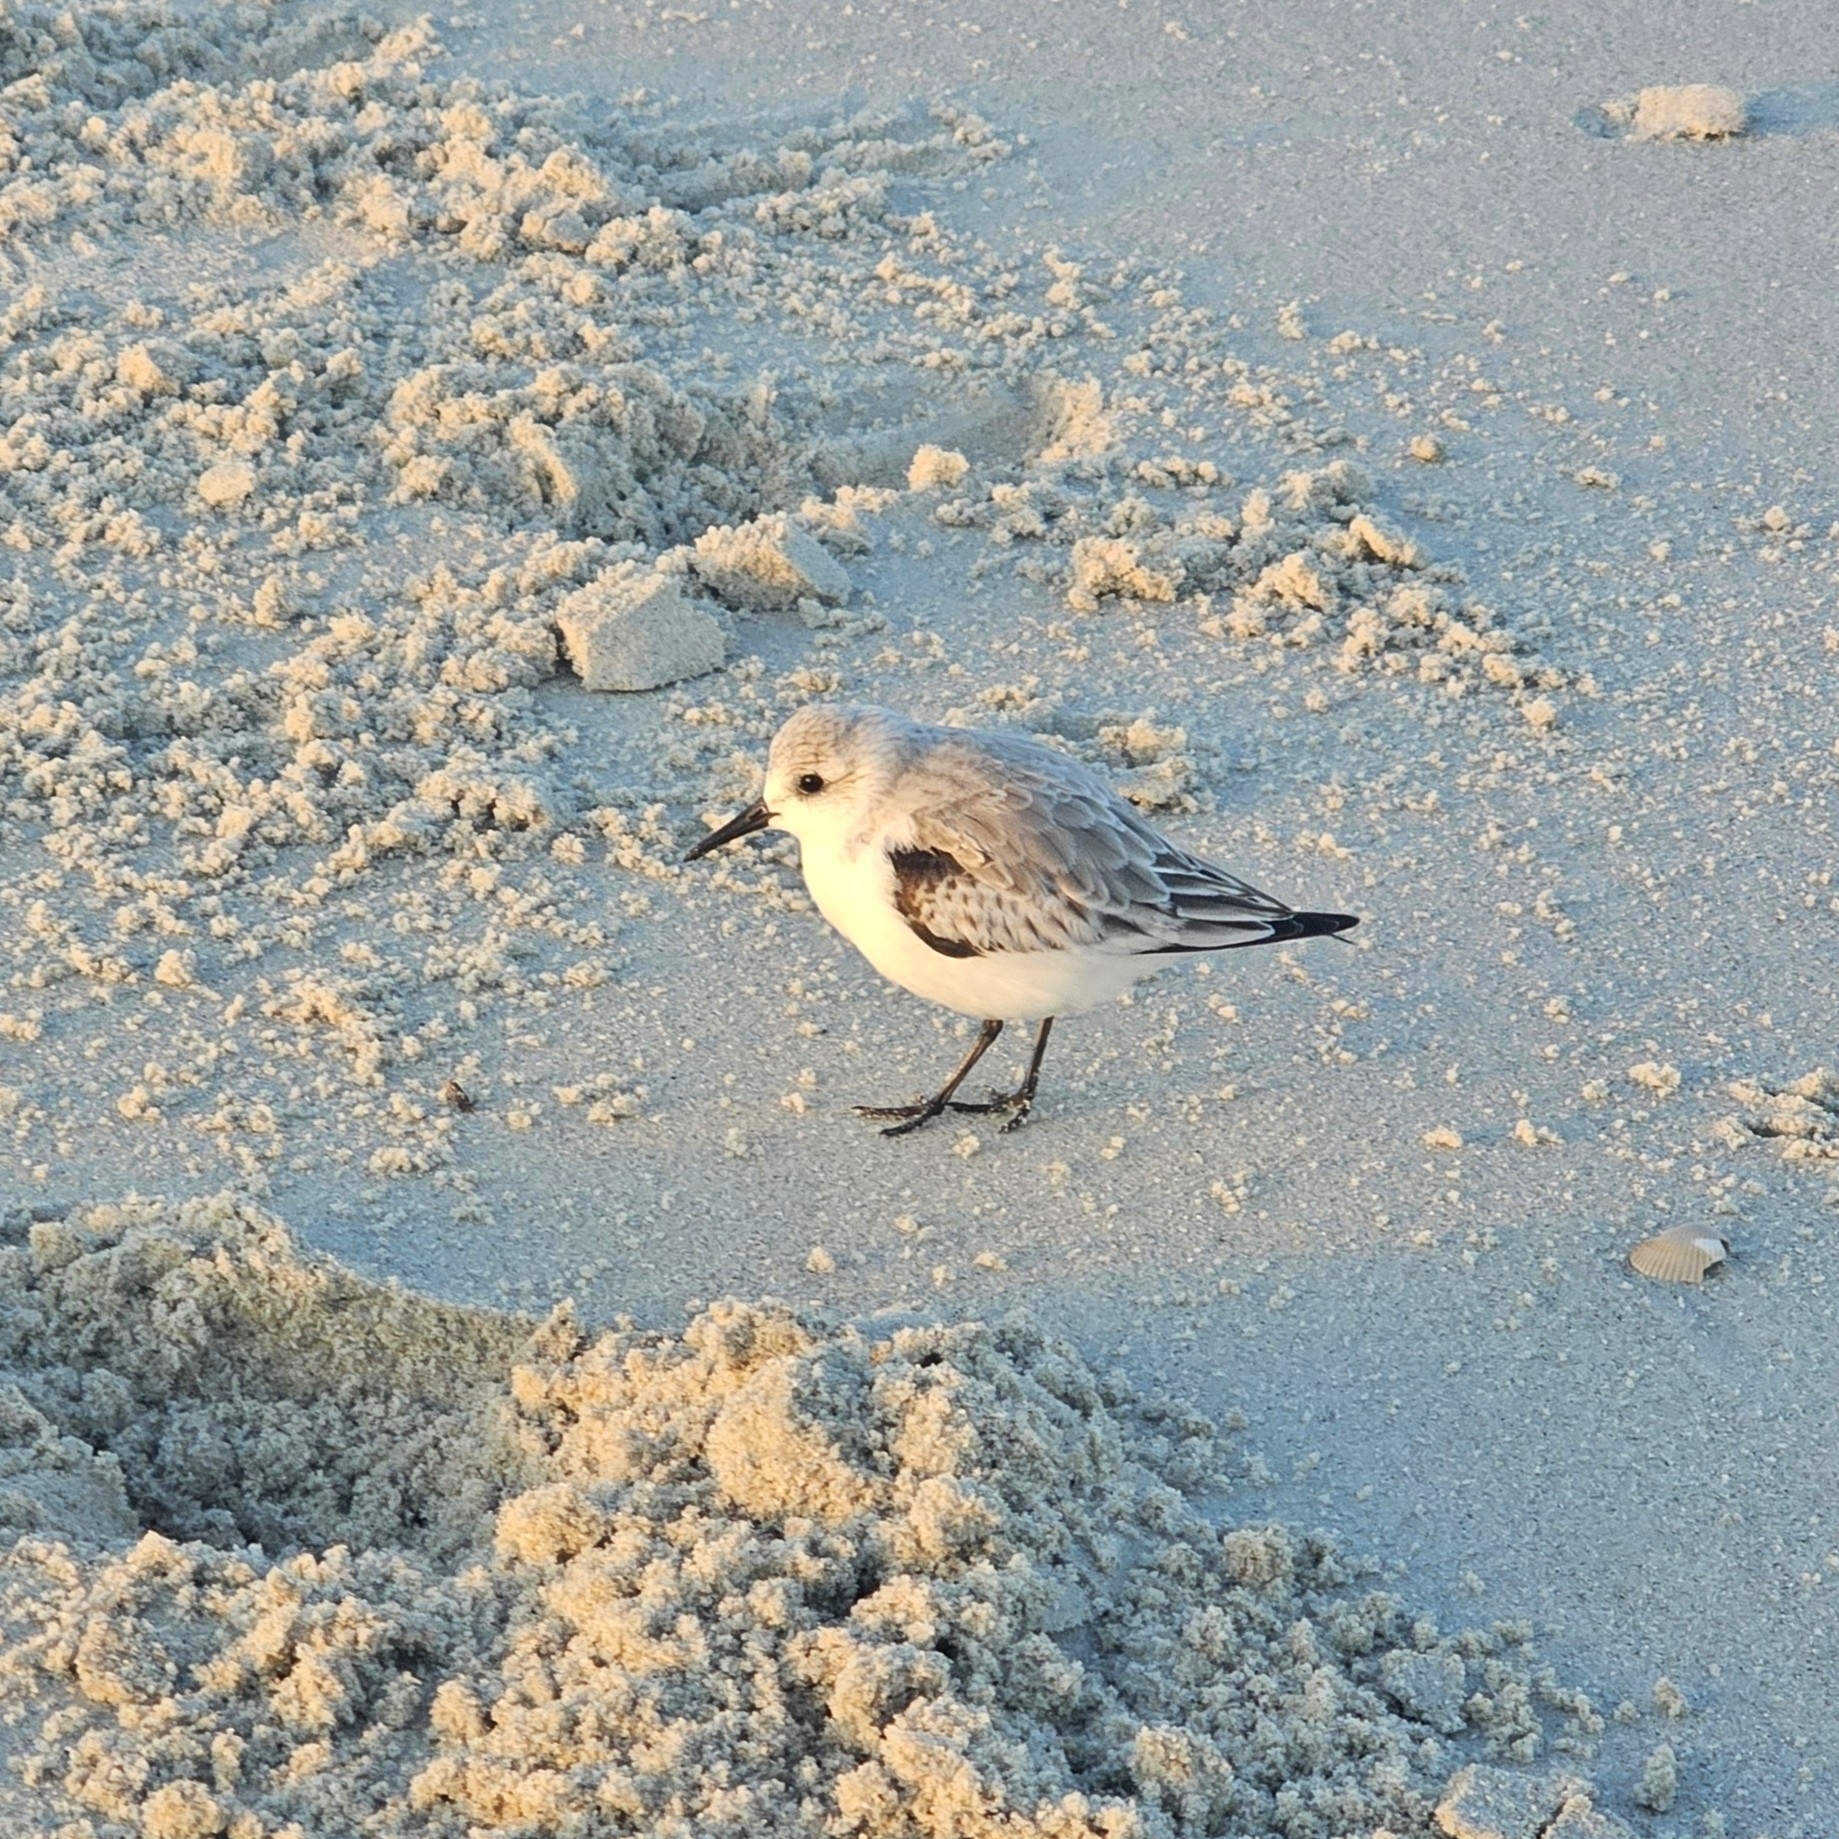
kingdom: Animalia
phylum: Chordata
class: Aves
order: Charadriiformes
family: Scolopacidae
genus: Calidris
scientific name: Calidris alba
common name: Sanderling
